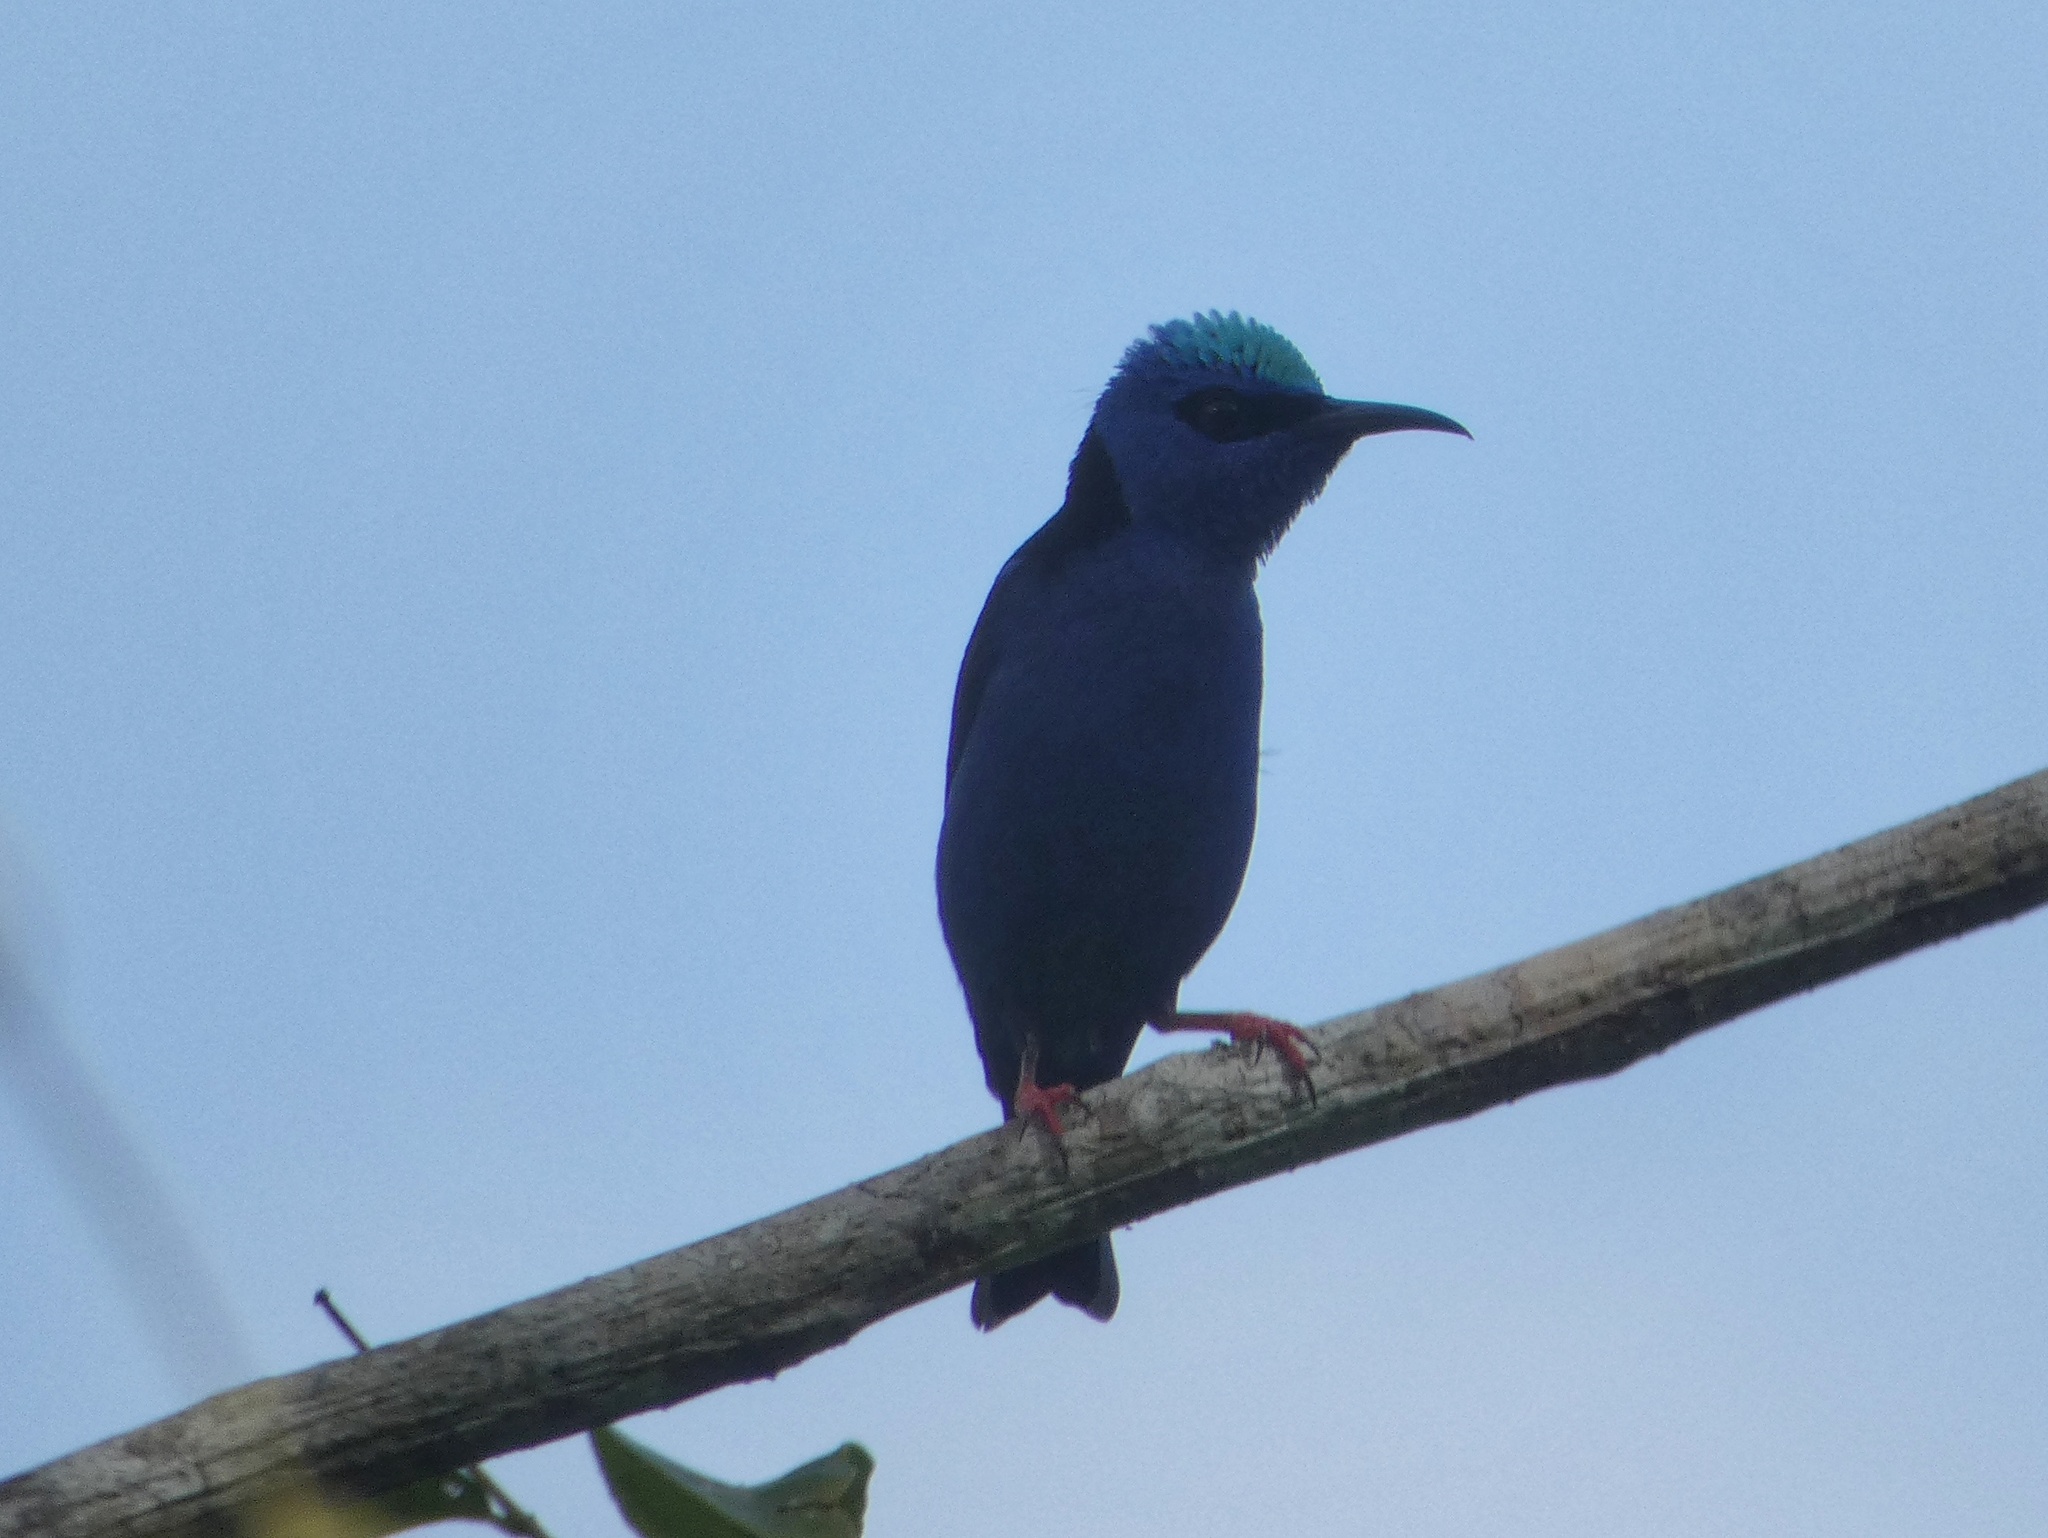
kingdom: Animalia
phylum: Chordata
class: Aves
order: Passeriformes
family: Thraupidae
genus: Cyanerpes
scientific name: Cyanerpes cyaneus
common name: Red-legged honeycreeper
